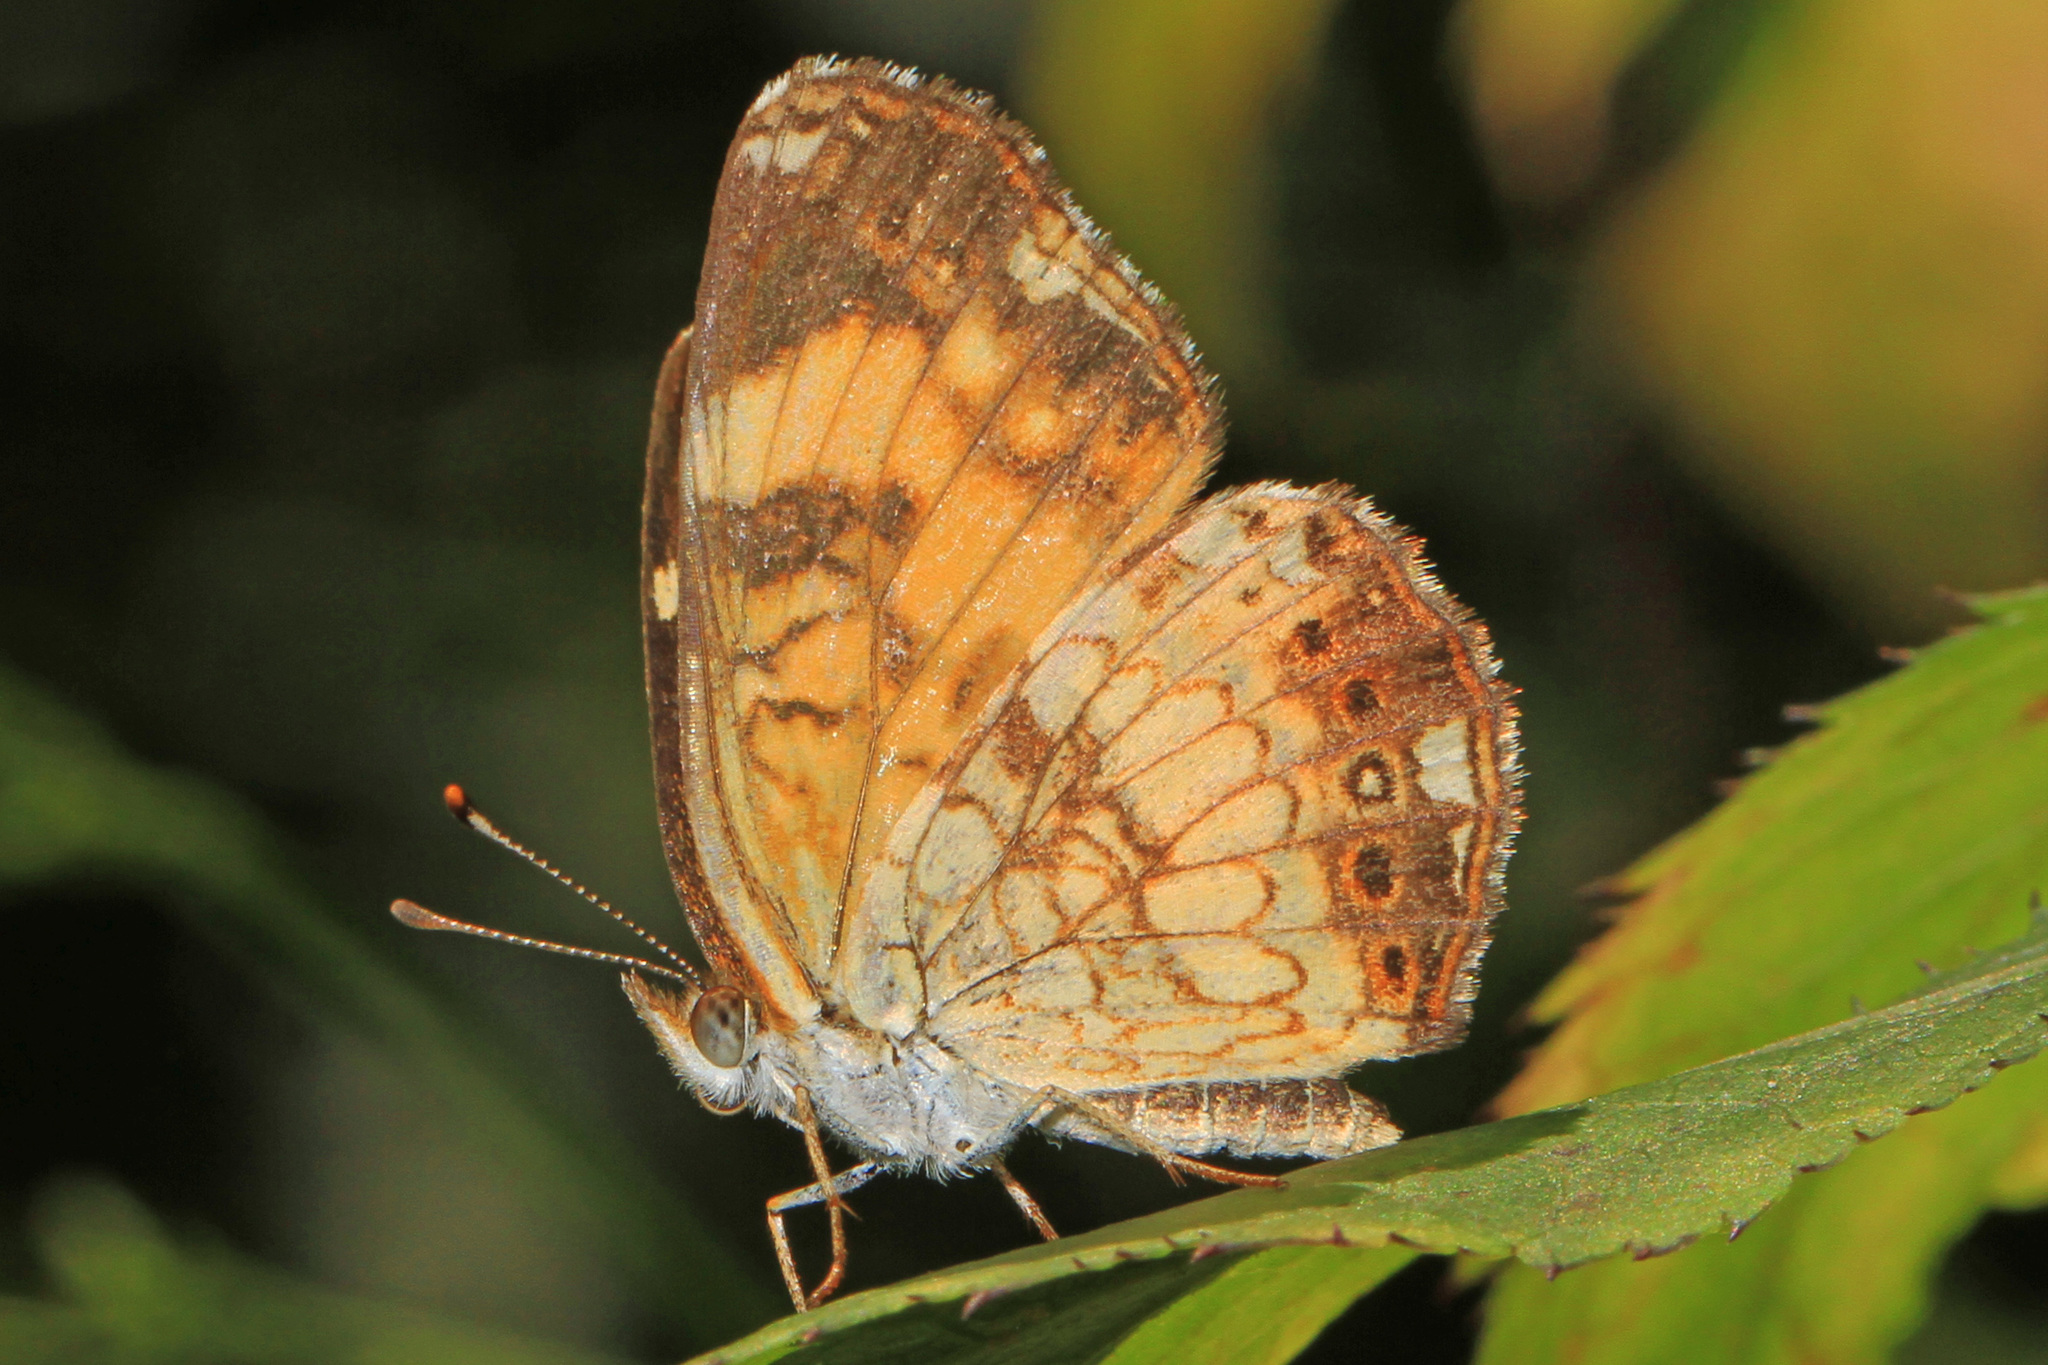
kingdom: Animalia
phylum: Arthropoda
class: Insecta
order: Lepidoptera
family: Nymphalidae
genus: Chlosyne
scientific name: Chlosyne nycteis
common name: Silvery checkerspot
